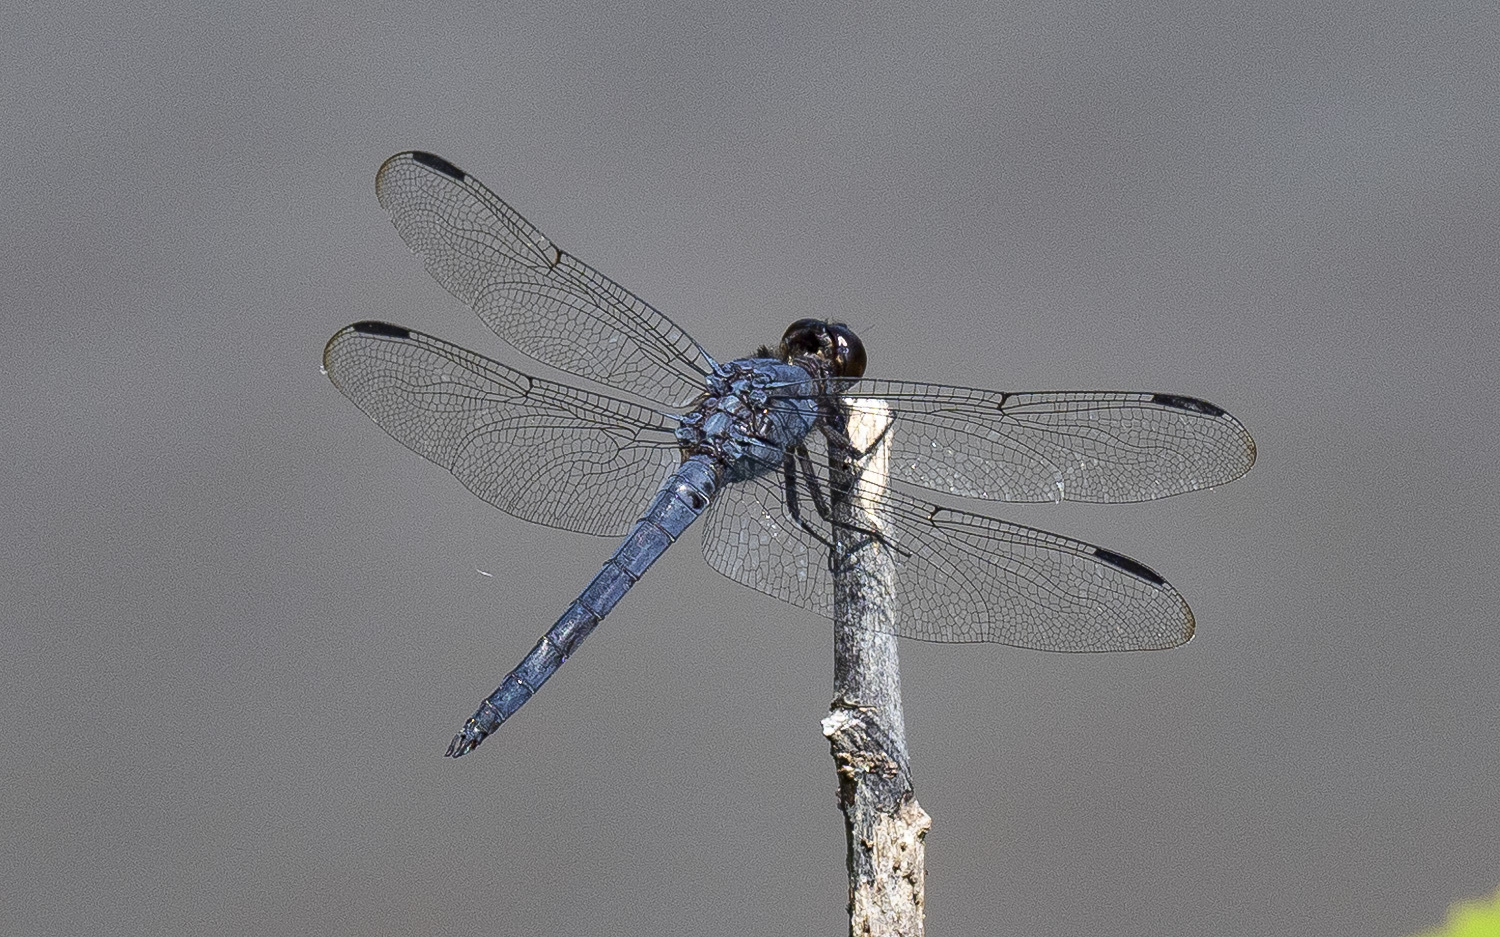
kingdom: Animalia
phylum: Arthropoda
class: Insecta
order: Odonata
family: Libellulidae
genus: Libellula
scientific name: Libellula incesta
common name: Slaty skimmer
